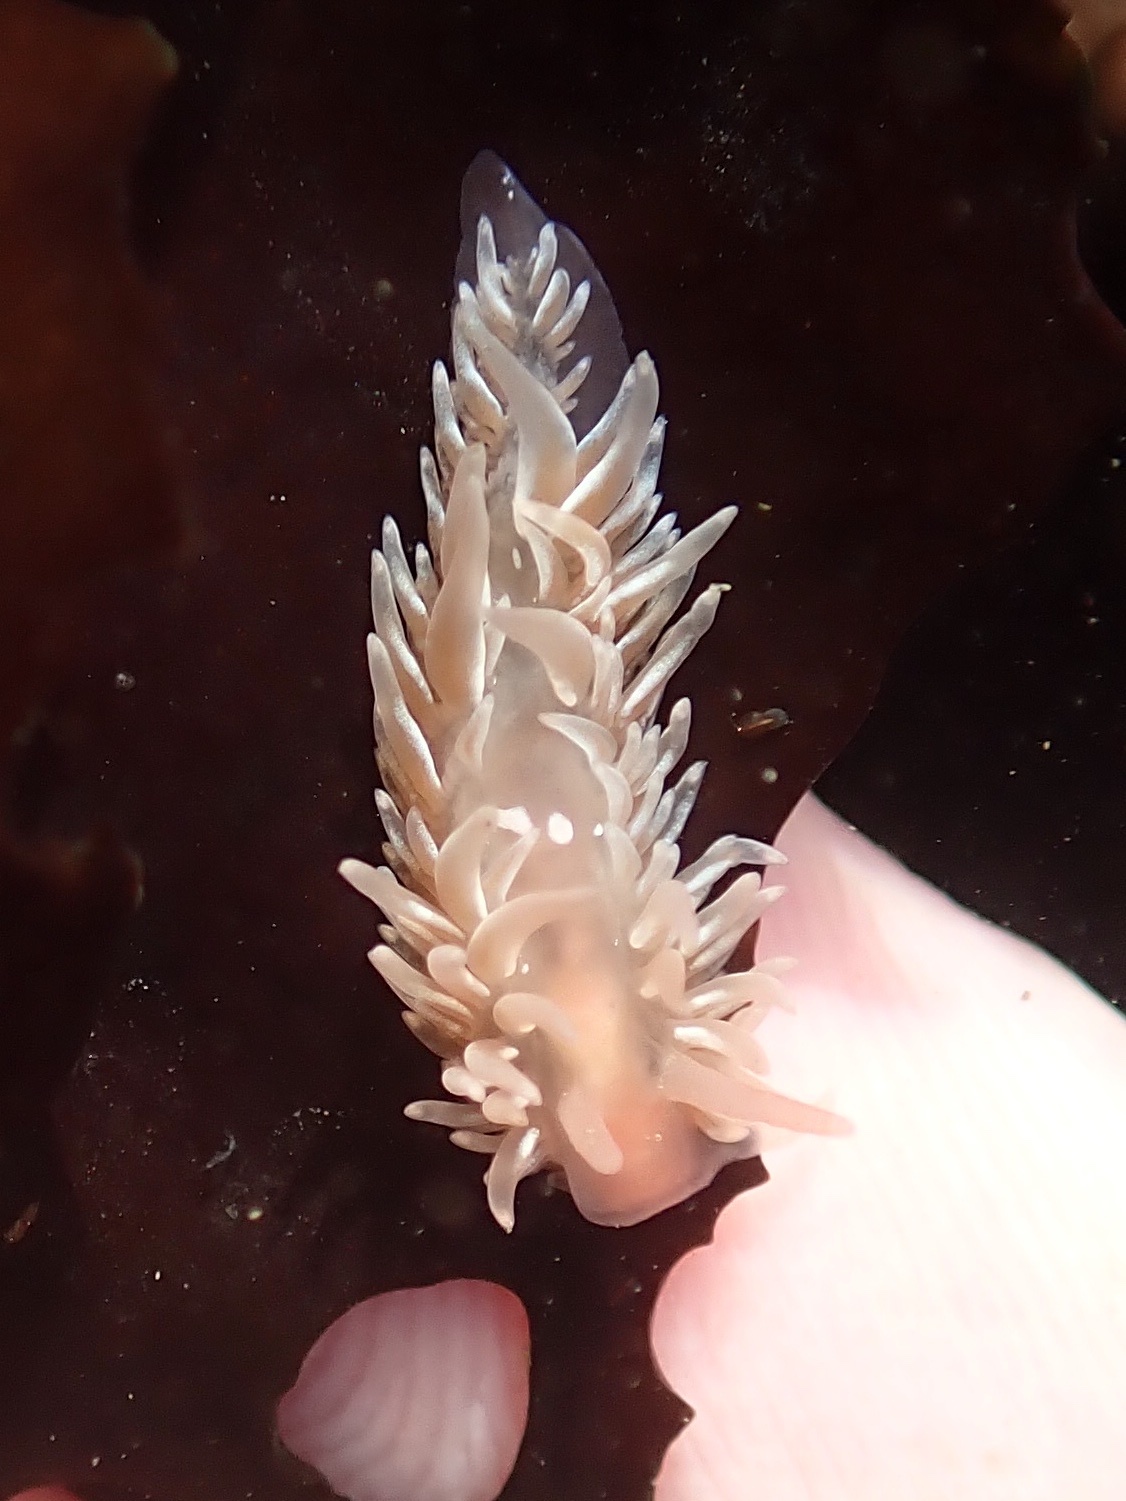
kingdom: Animalia
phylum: Mollusca
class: Gastropoda
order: Nudibranchia
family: Aeolidiidae
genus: Aeolidia
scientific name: Aeolidia loui
